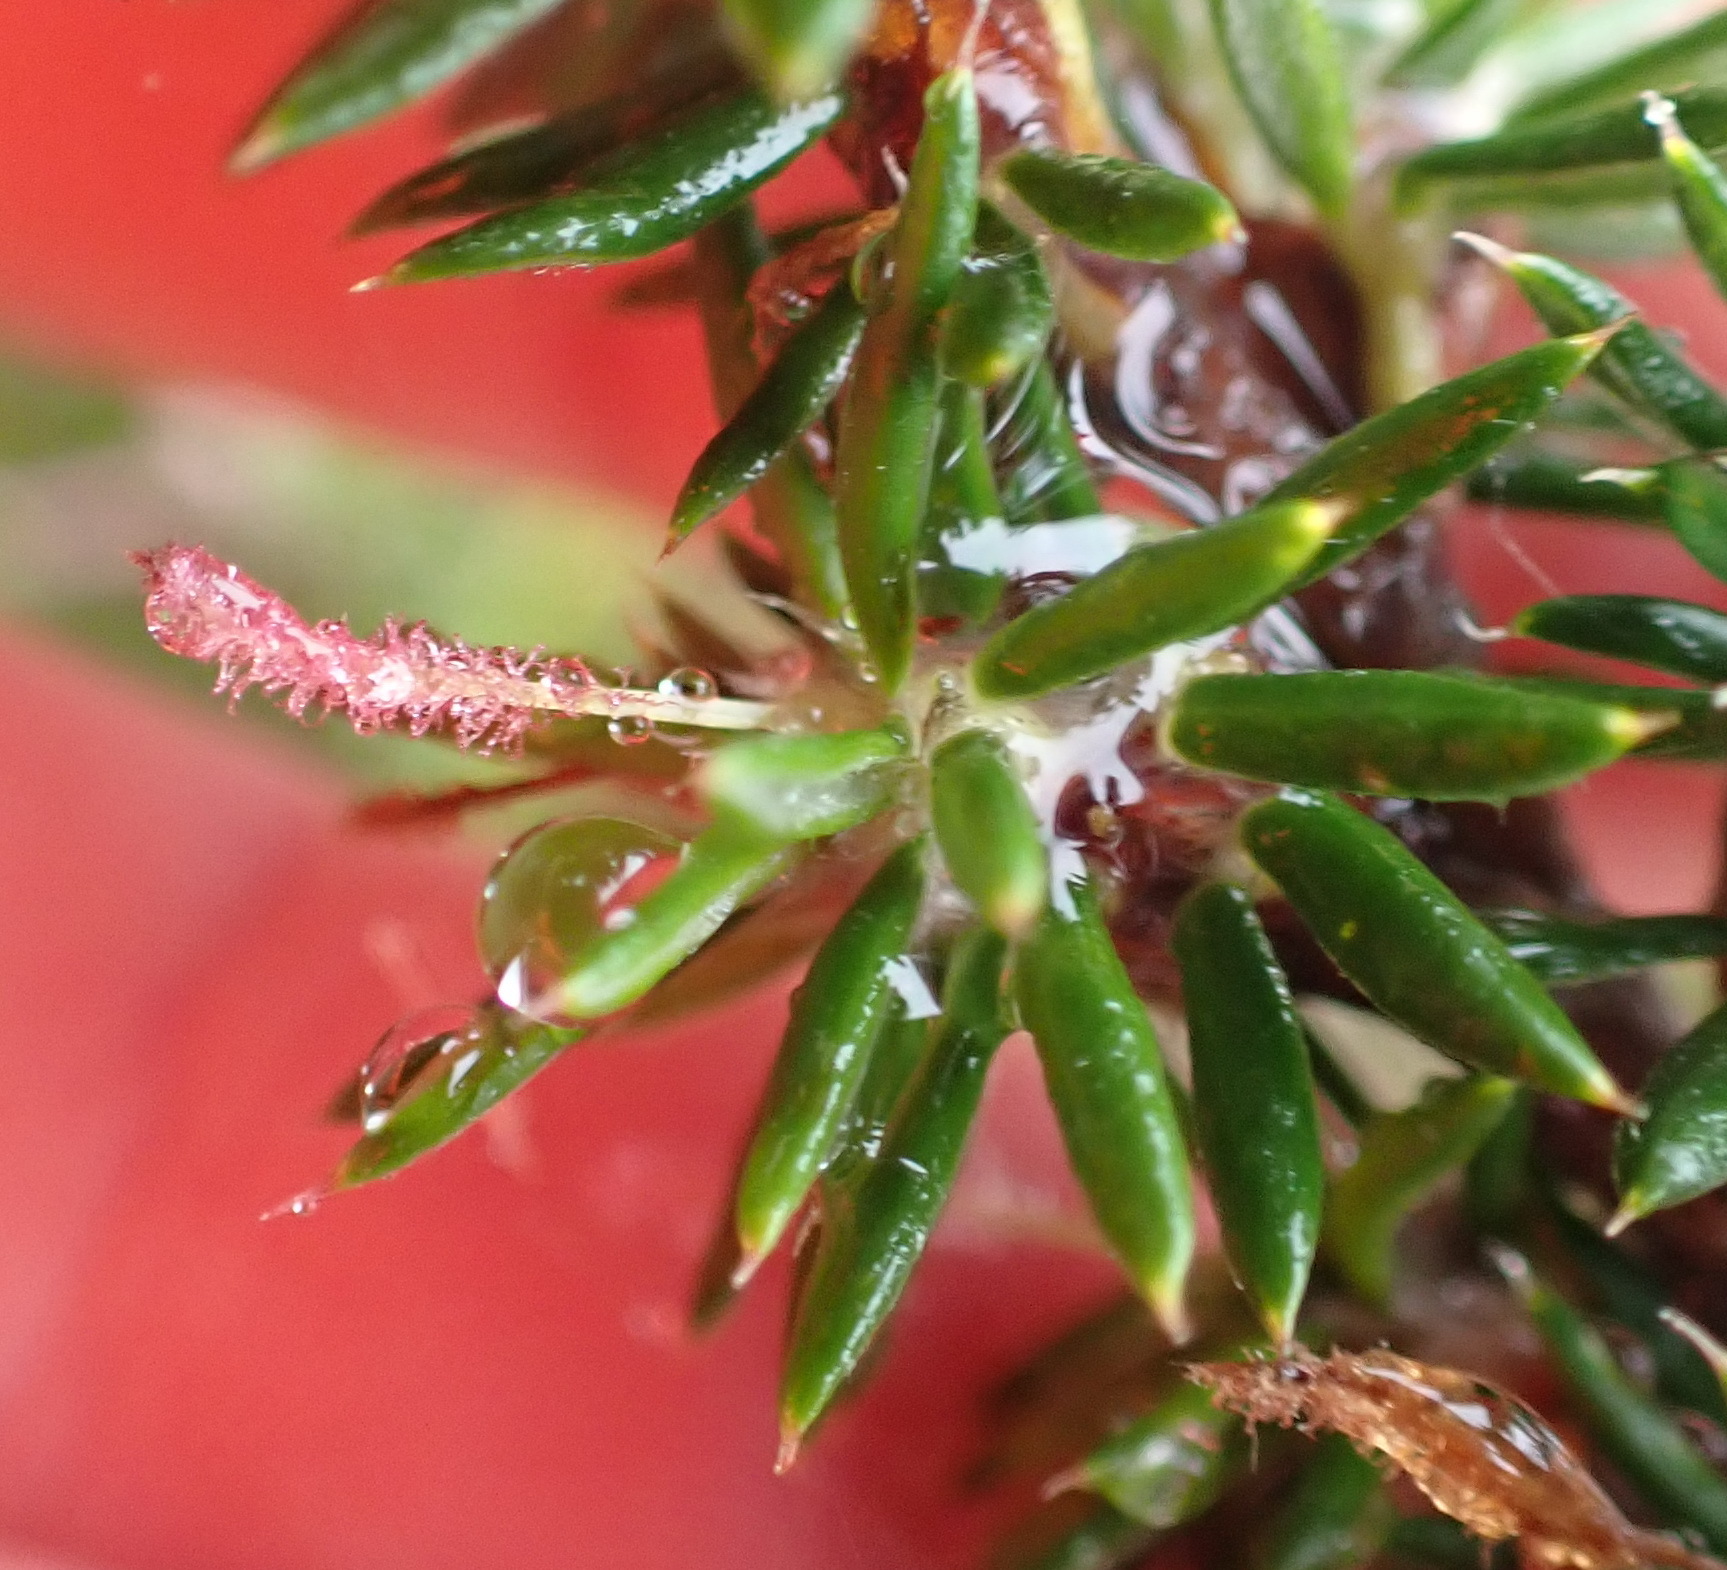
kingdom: Plantae
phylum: Tracheophyta
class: Magnoliopsida
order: Rosales
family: Rosaceae
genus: Cliffortia
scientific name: Cliffortia stricta
